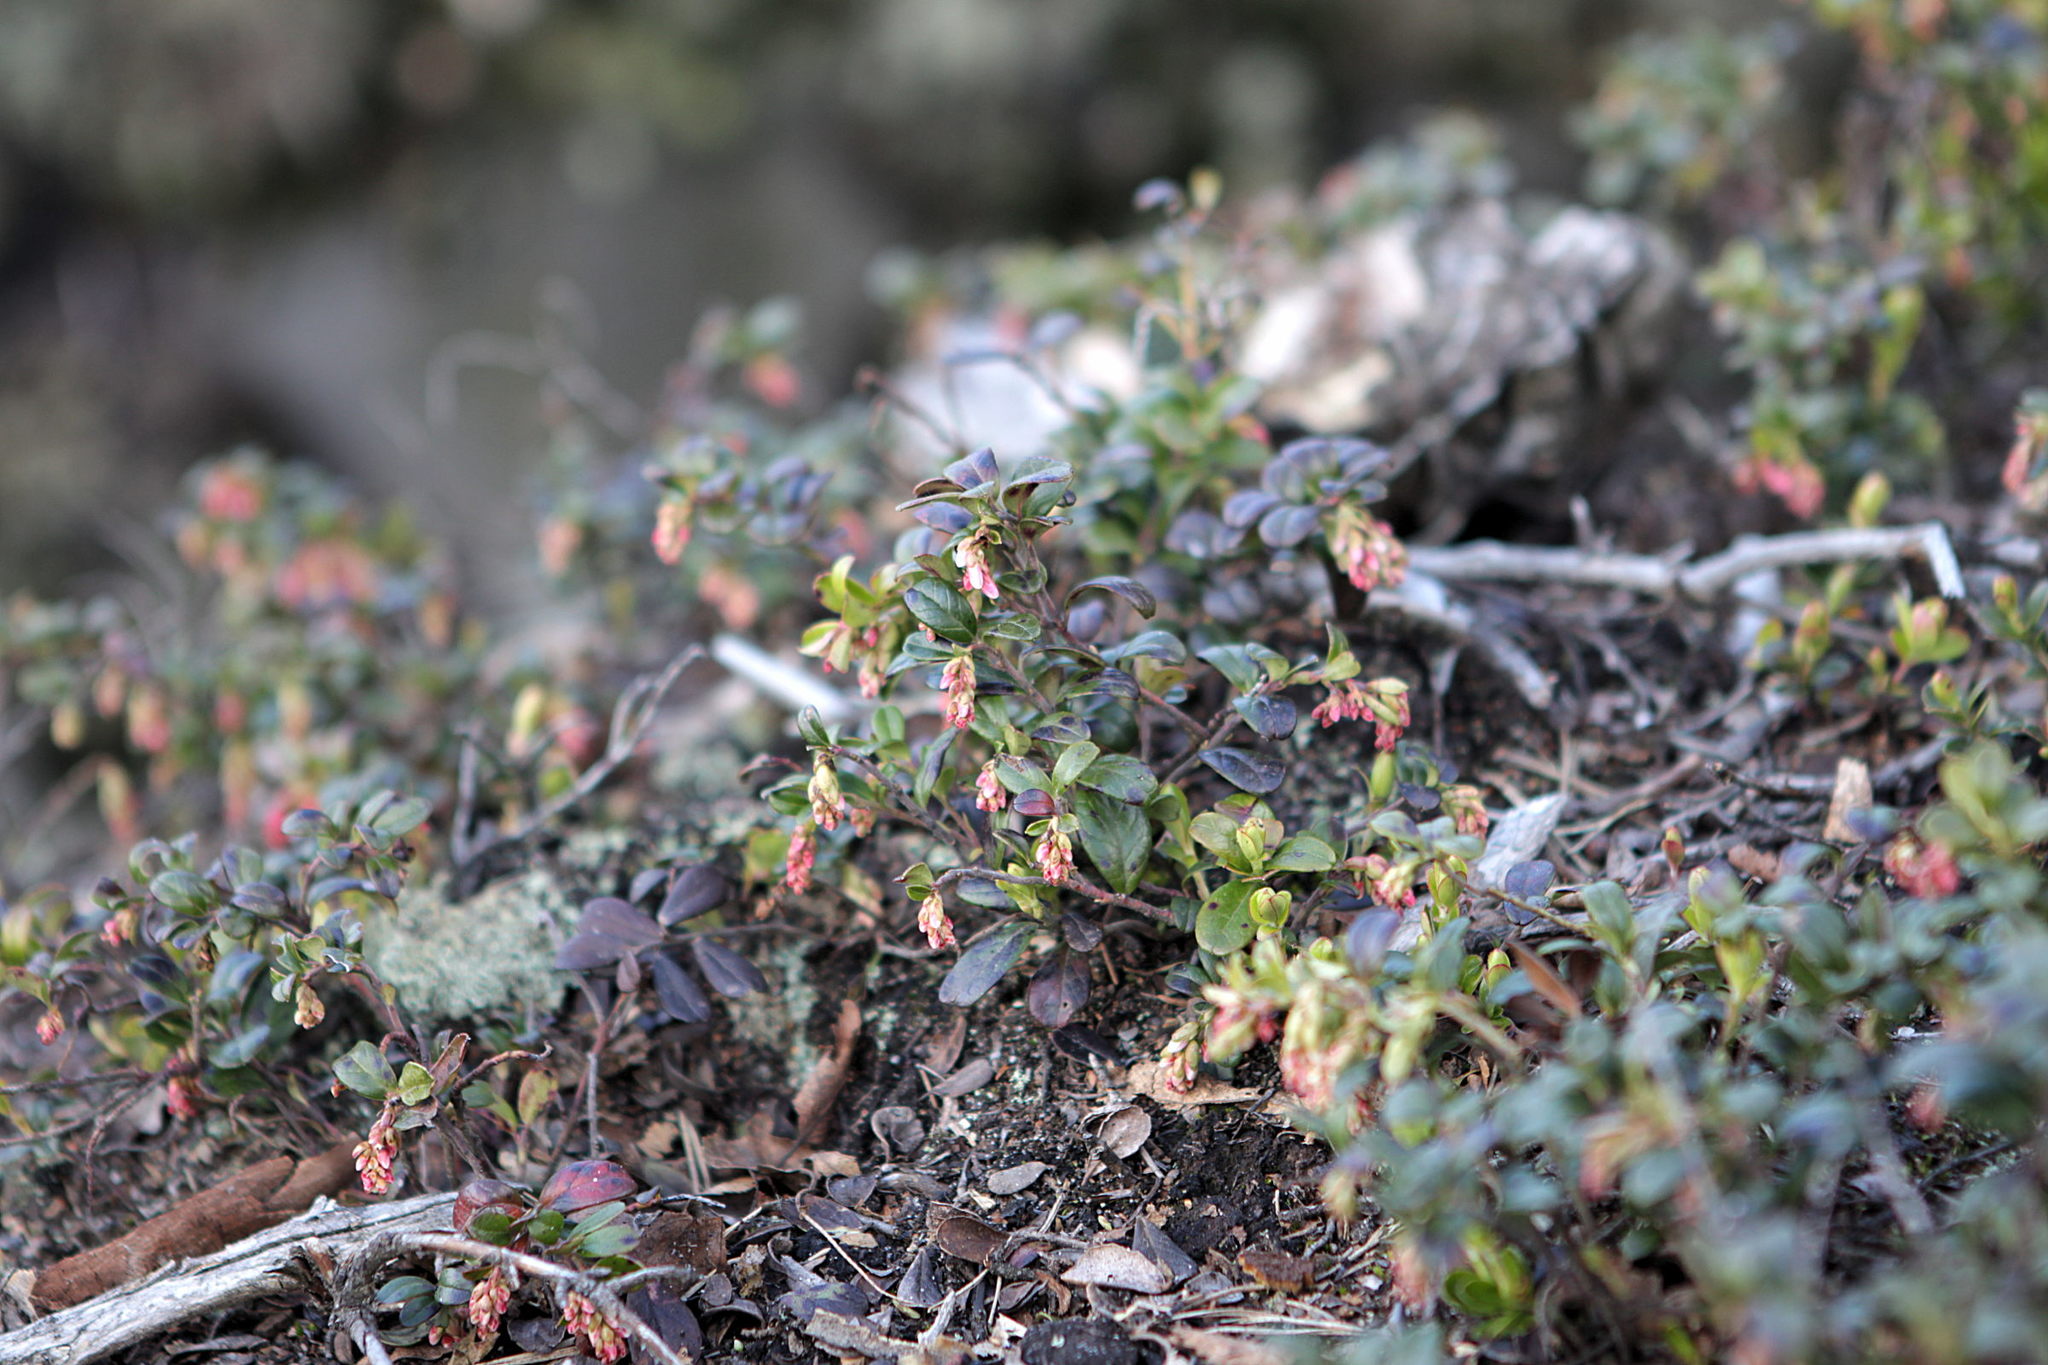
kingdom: Plantae
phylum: Tracheophyta
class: Magnoliopsida
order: Ericales
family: Ericaceae
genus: Vaccinium
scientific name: Vaccinium vitis-idaea
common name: Cowberry
